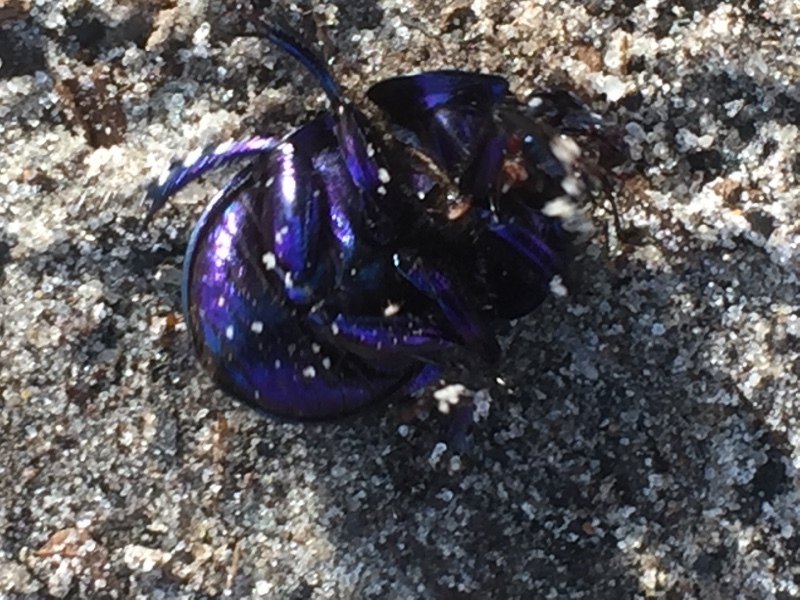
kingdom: Animalia
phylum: Arthropoda
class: Insecta
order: Coleoptera
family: Geotrupidae
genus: Anoplotrupes
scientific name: Anoplotrupes stercorosus
